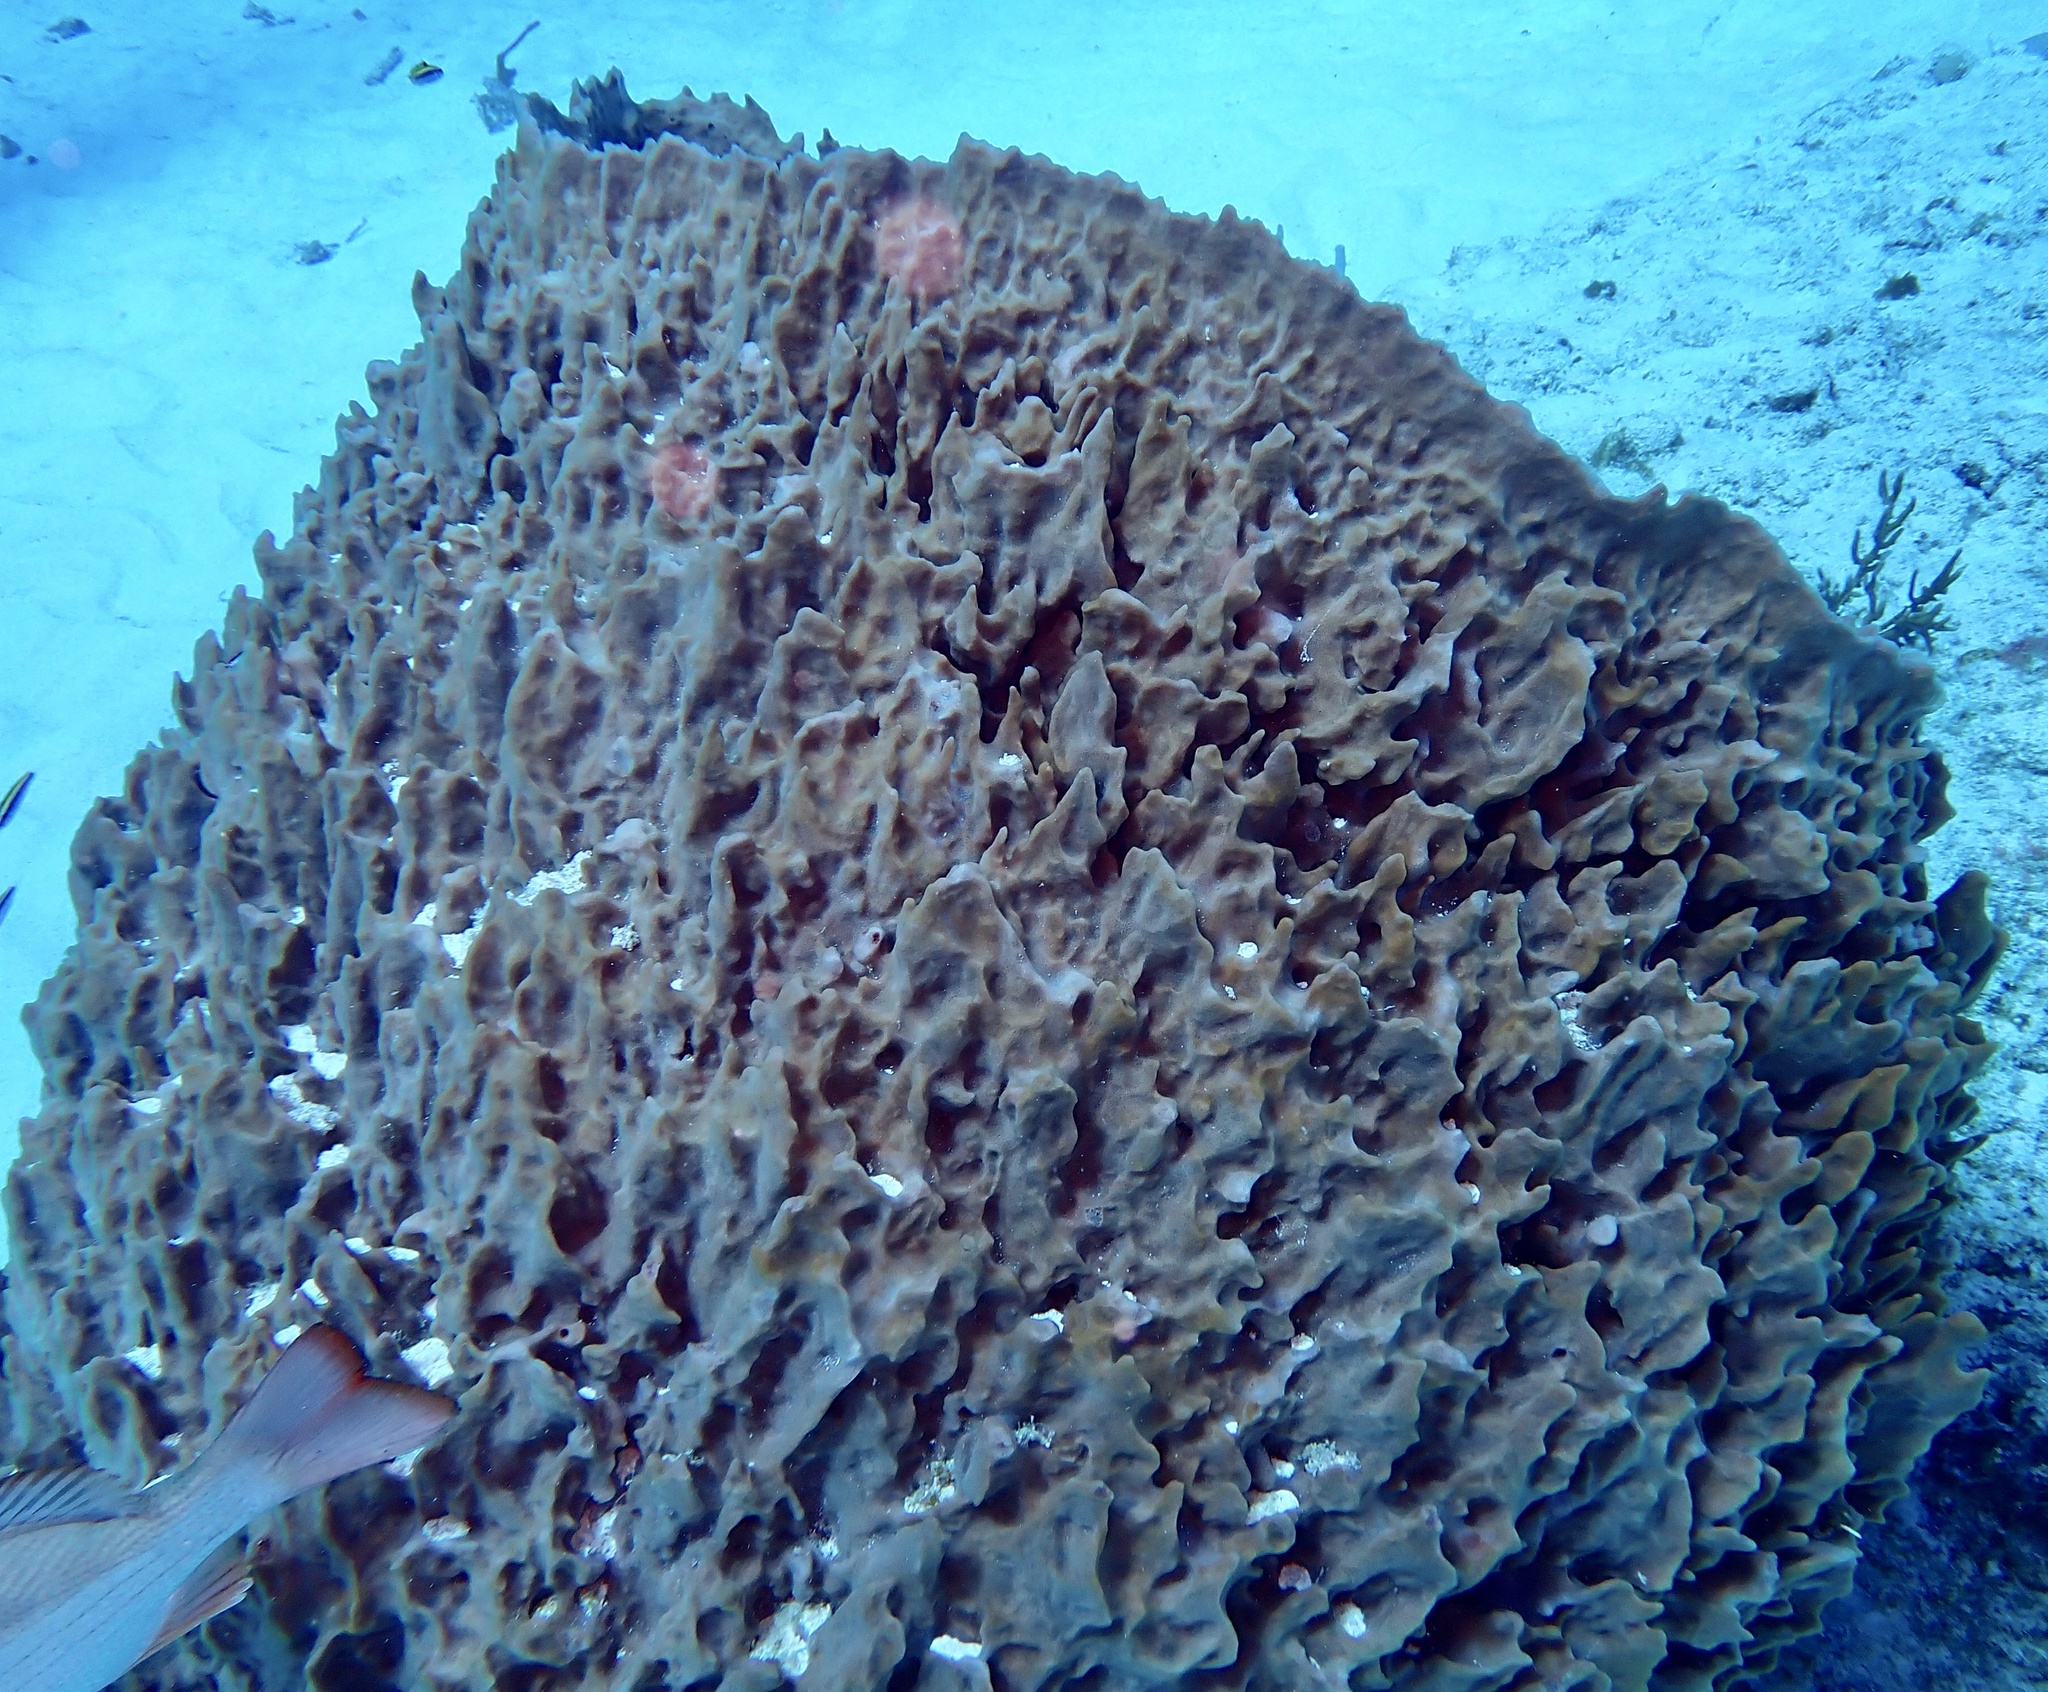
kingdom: Animalia
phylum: Porifera
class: Demospongiae
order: Haplosclerida
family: Petrosiidae
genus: Xestospongia
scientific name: Xestospongia muta
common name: Giant barrel sponge
